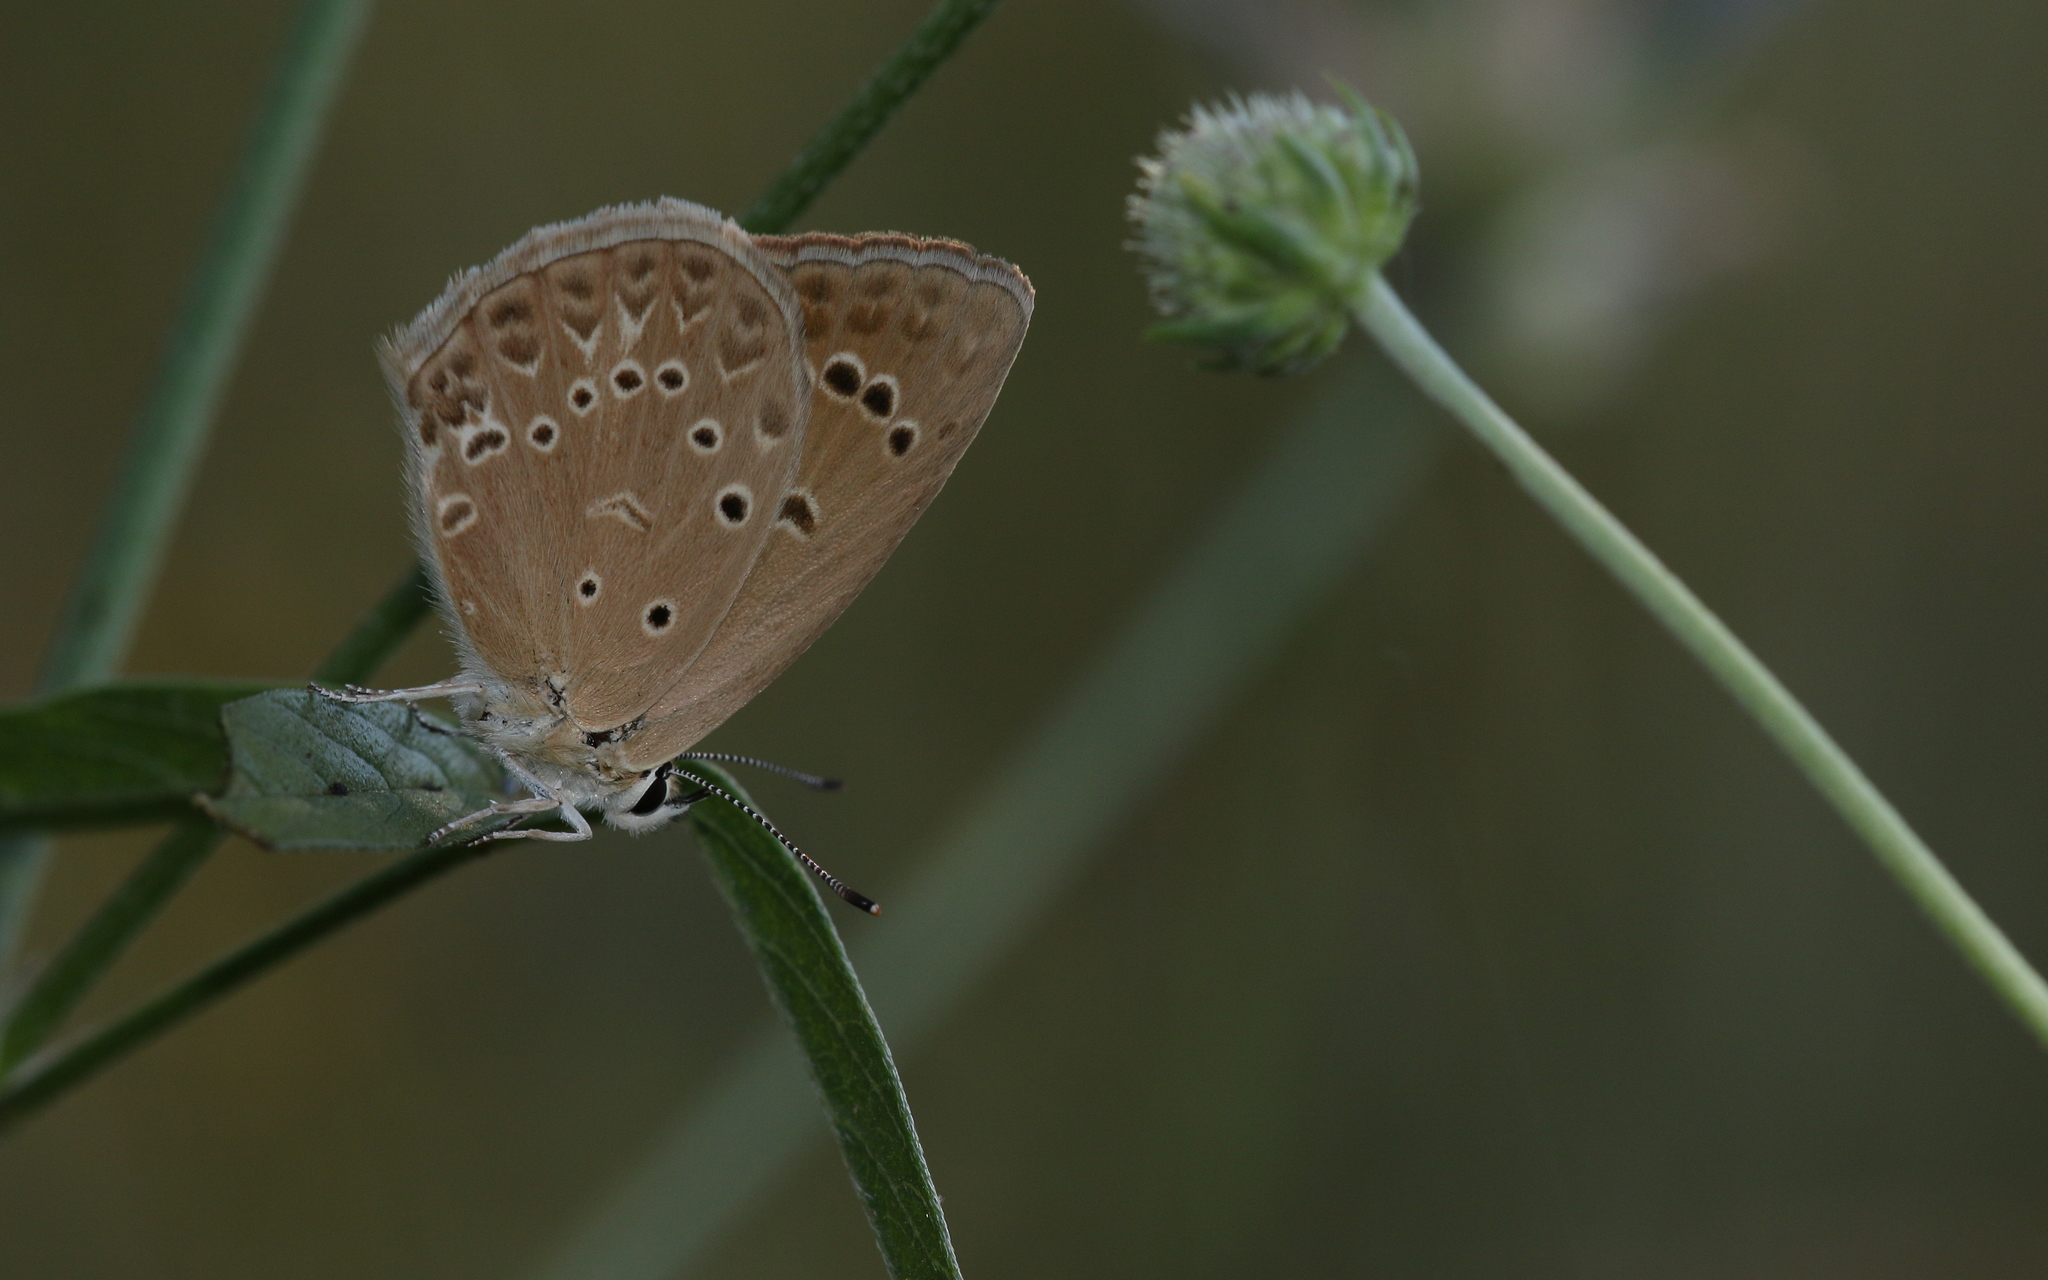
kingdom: Animalia
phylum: Arthropoda
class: Insecta
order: Lepidoptera
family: Lycaenidae
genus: Agrodiaetus
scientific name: Agrodiaetus admetus
